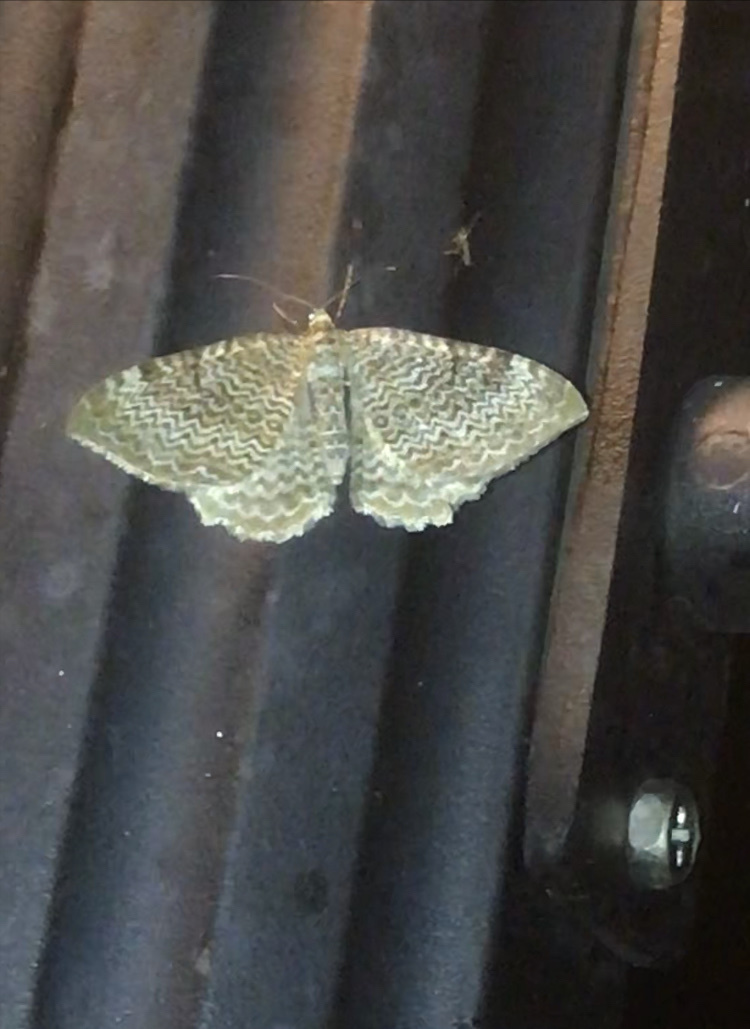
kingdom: Animalia
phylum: Arthropoda
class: Insecta
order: Lepidoptera
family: Geometridae
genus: Rheumaptera
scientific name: Rheumaptera undulata
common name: Scallop shell
